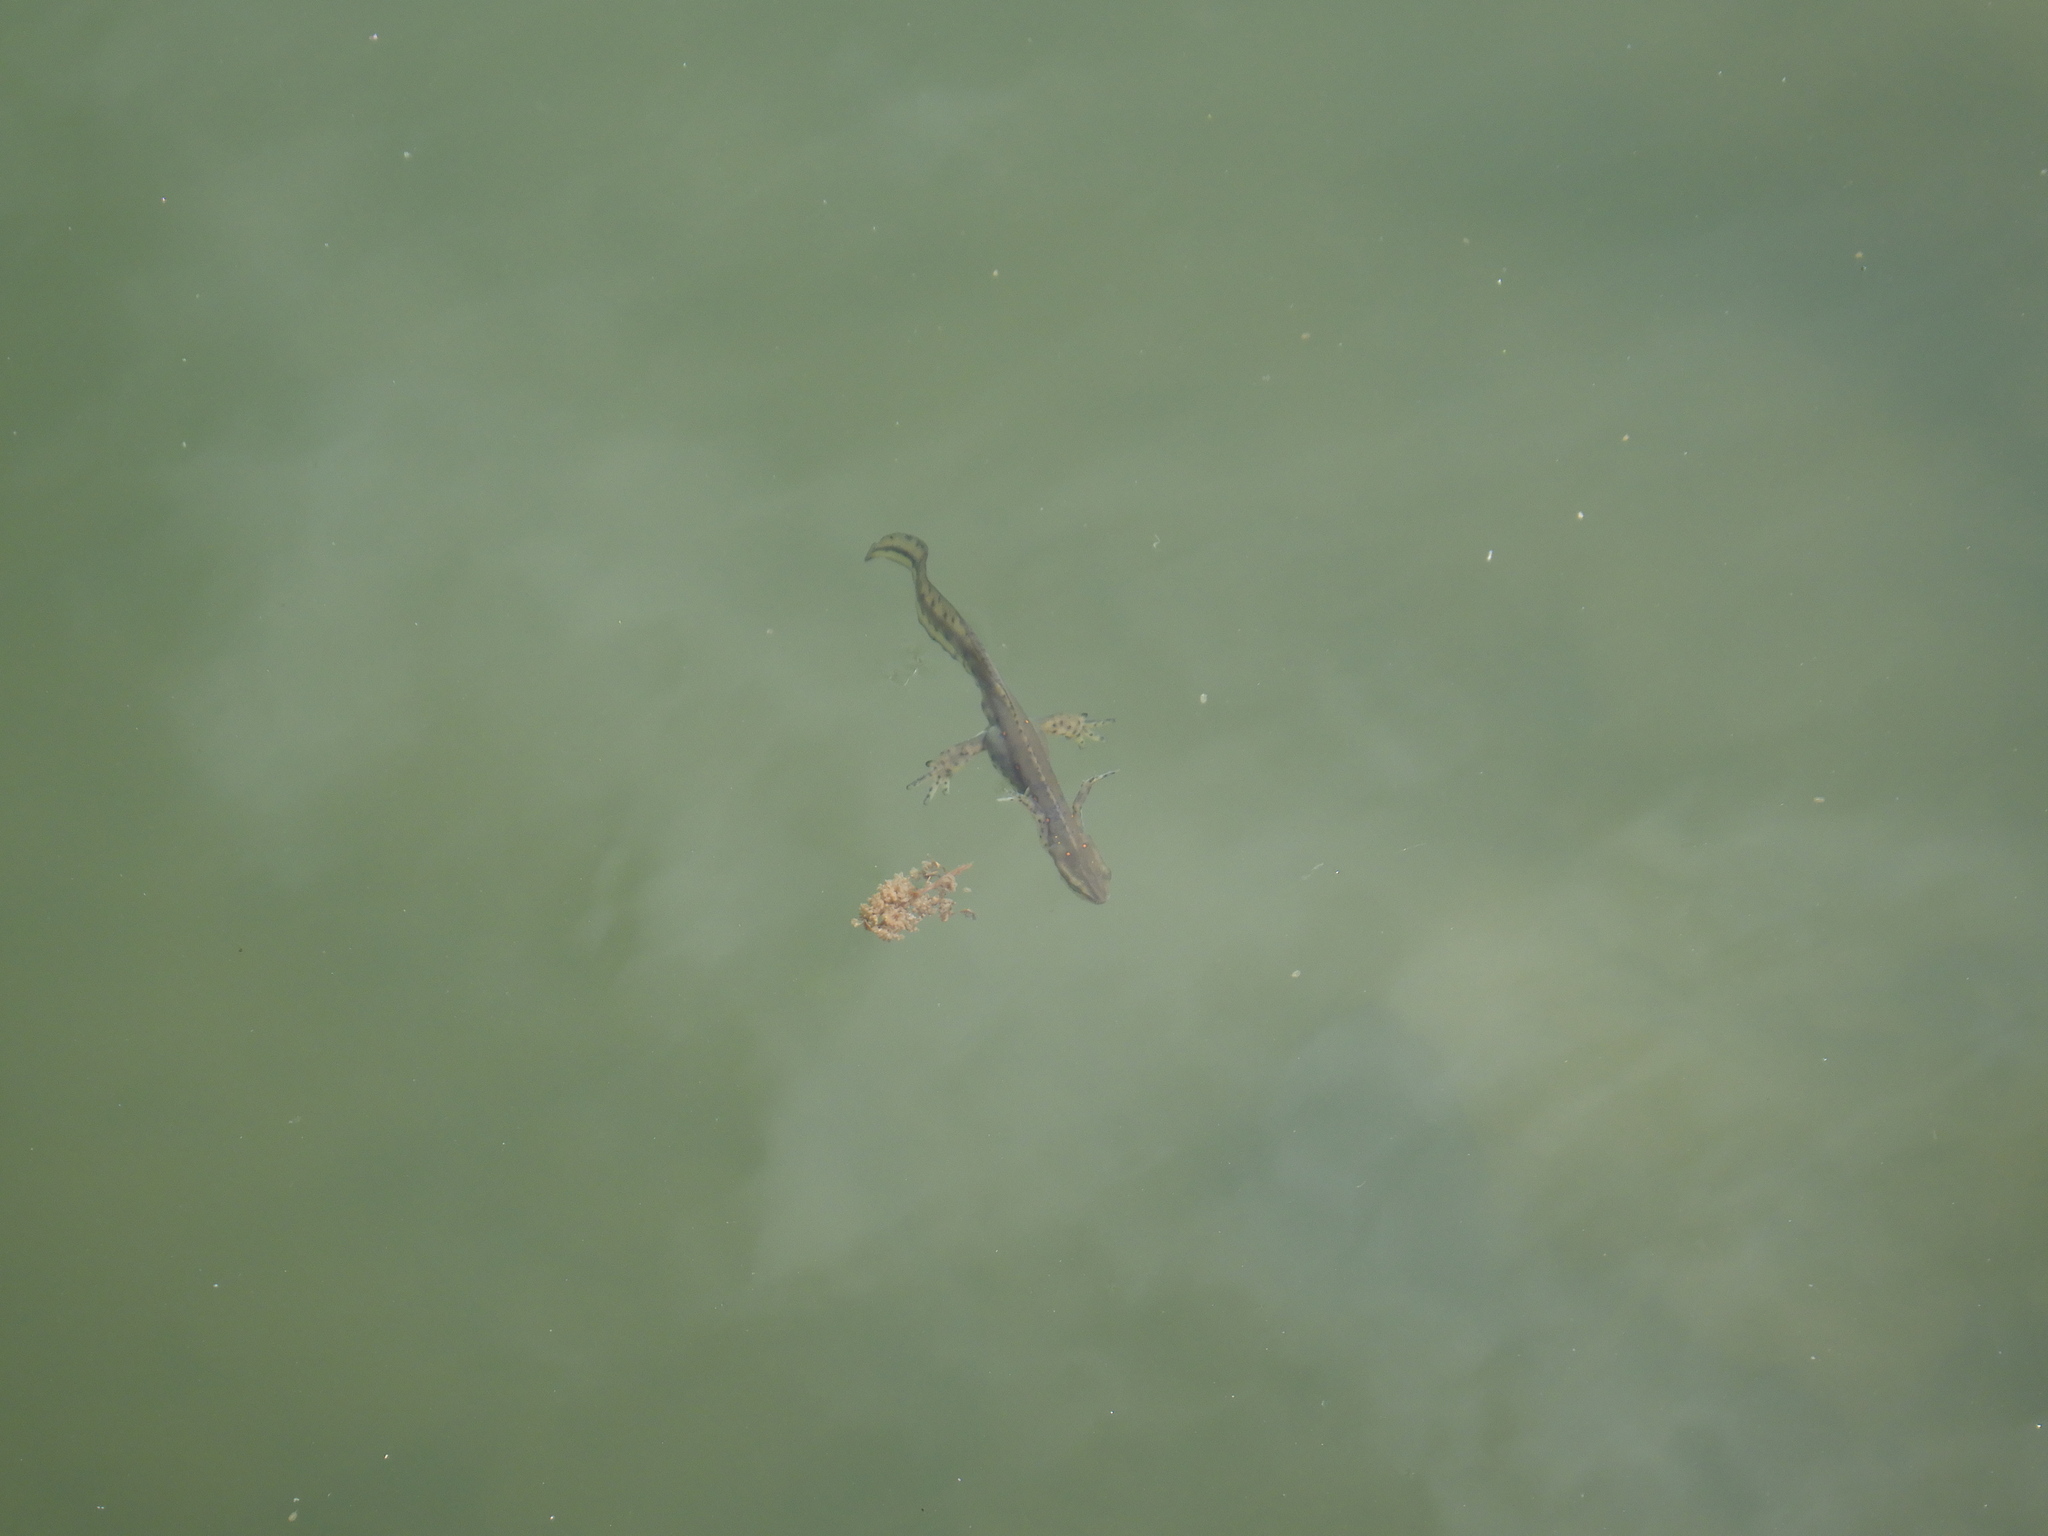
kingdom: Animalia
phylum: Chordata
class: Amphibia
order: Caudata
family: Salamandridae
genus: Notophthalmus
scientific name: Notophthalmus viridescens
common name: Eastern newt
